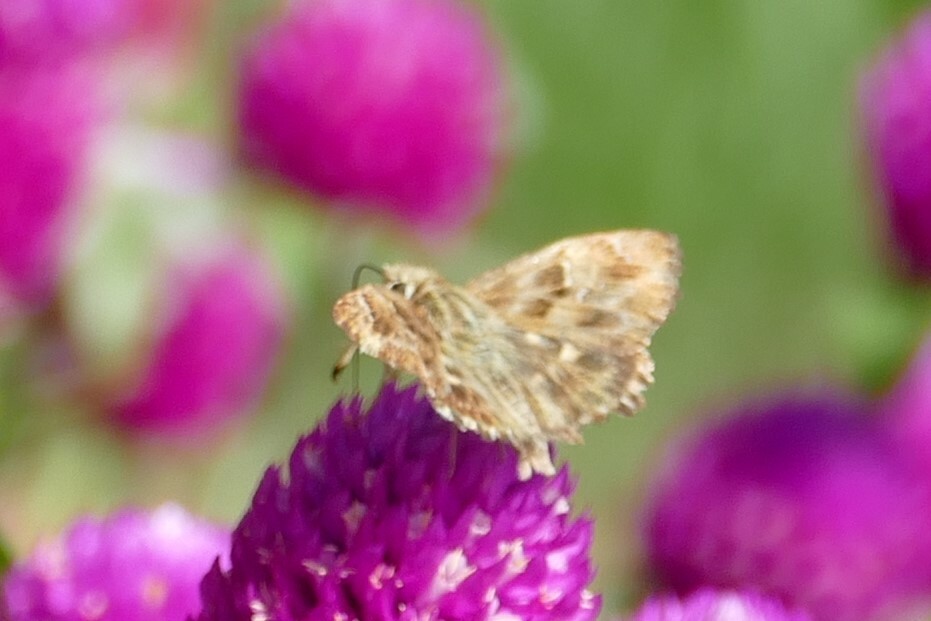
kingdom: Animalia
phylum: Arthropoda
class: Insecta
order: Lepidoptera
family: Hesperiidae
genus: Carcharodus
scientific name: Carcharodus alceae
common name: Mallow skipper
